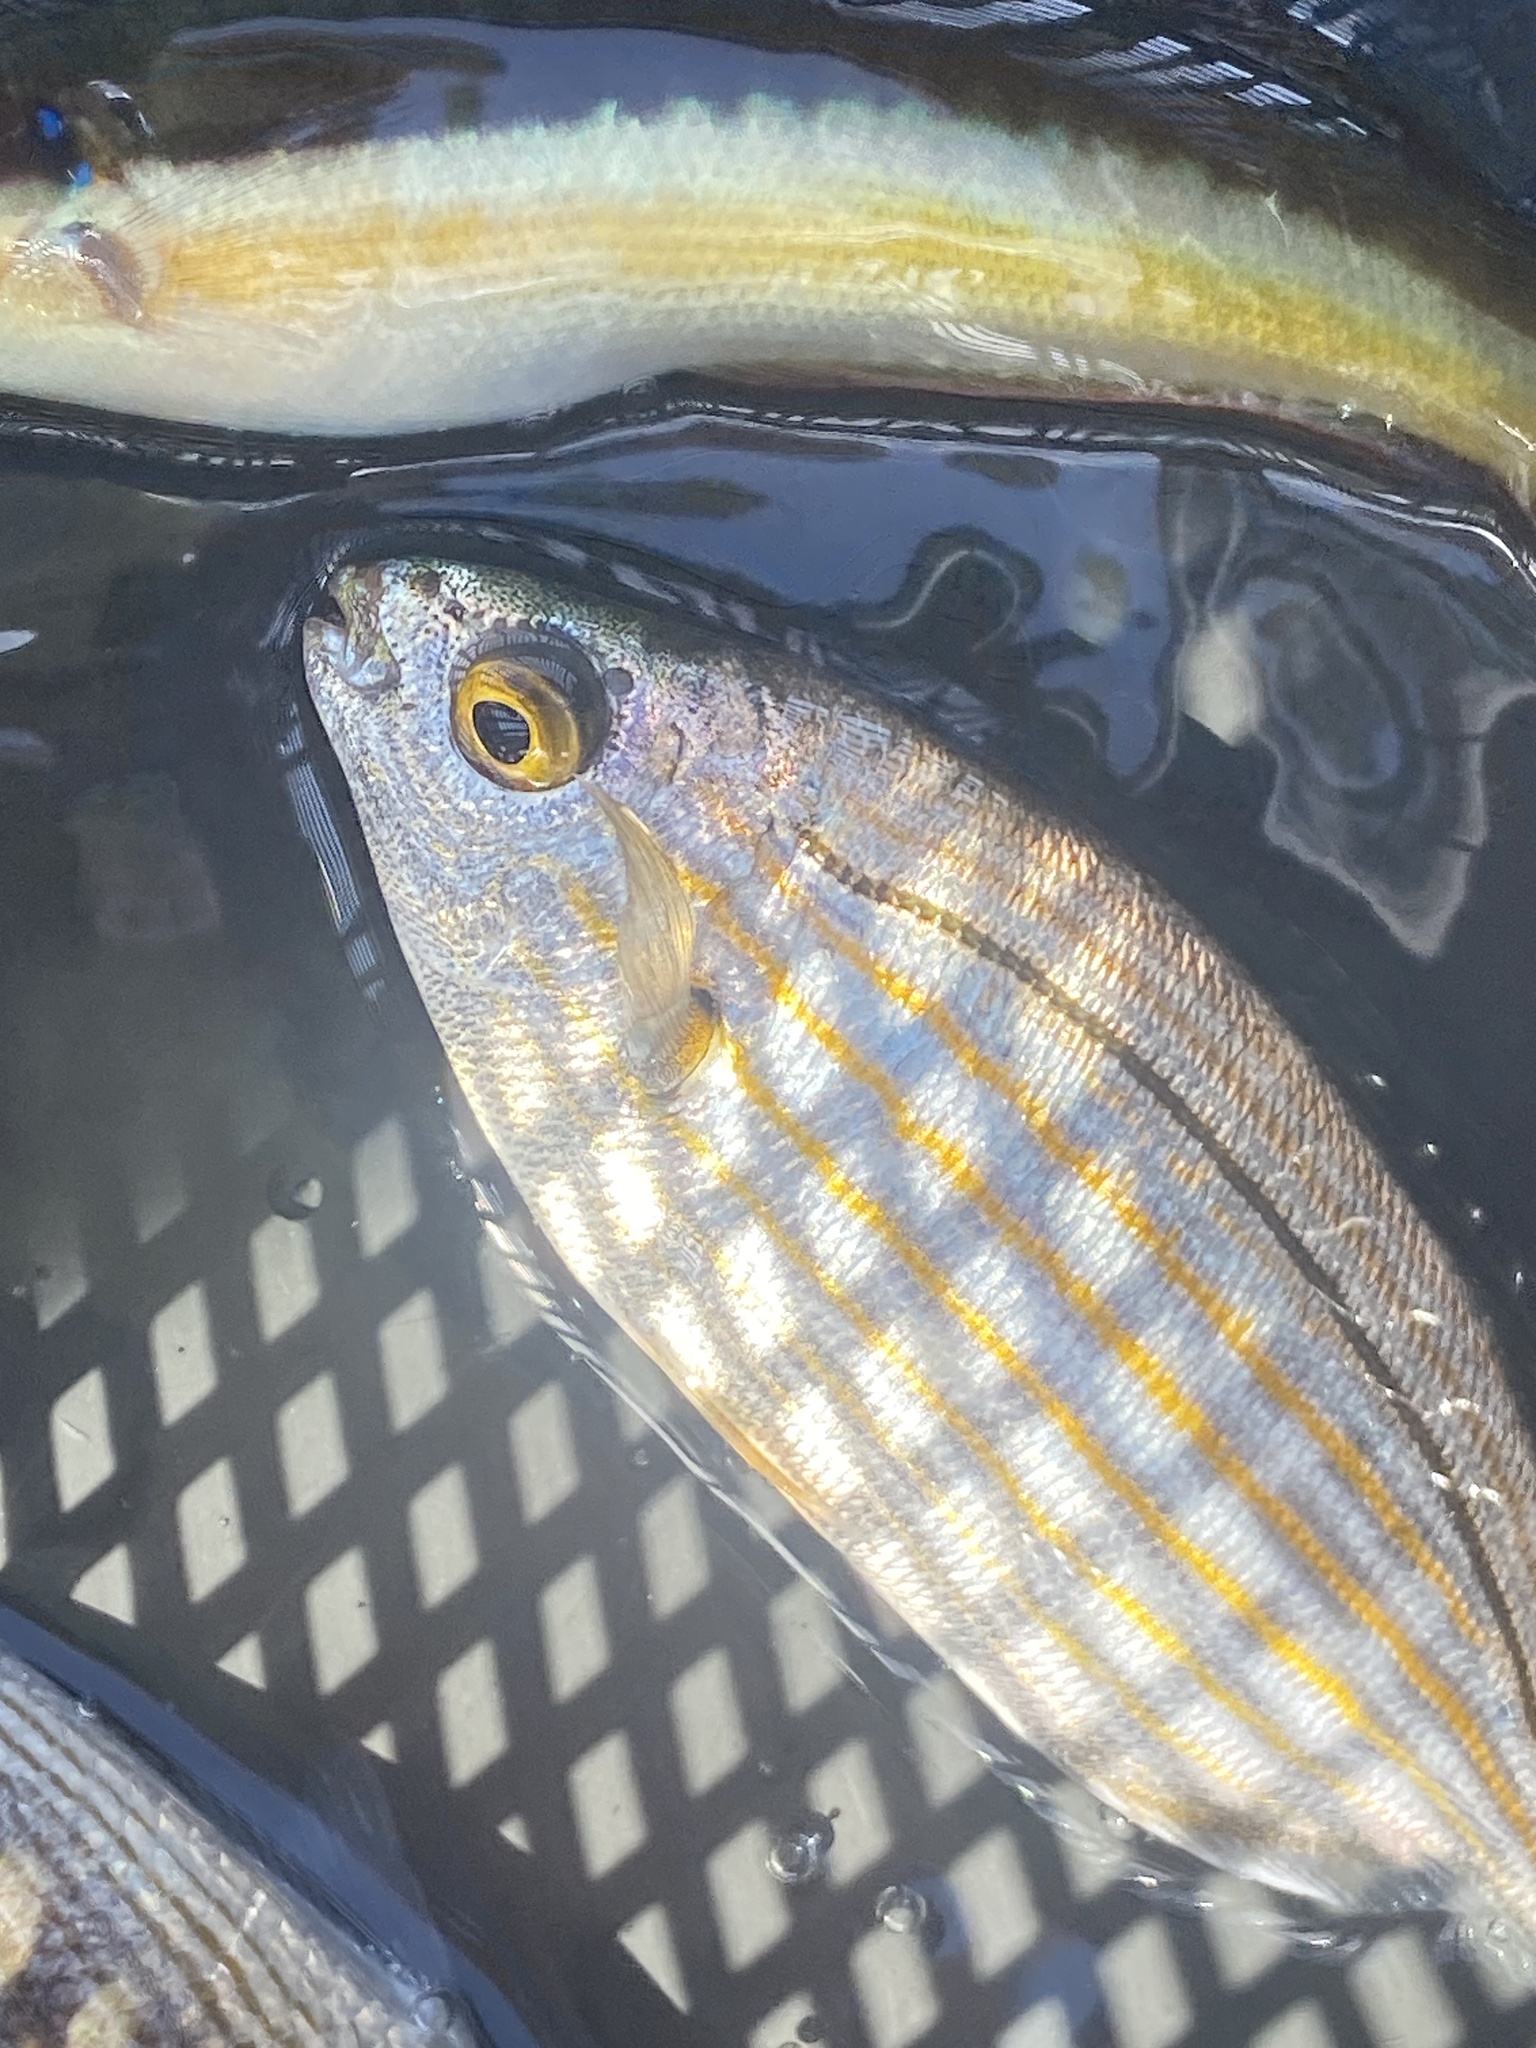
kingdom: Animalia
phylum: Chordata
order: Perciformes
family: Sparidae
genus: Sarpa
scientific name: Sarpa salpa
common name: Salema
